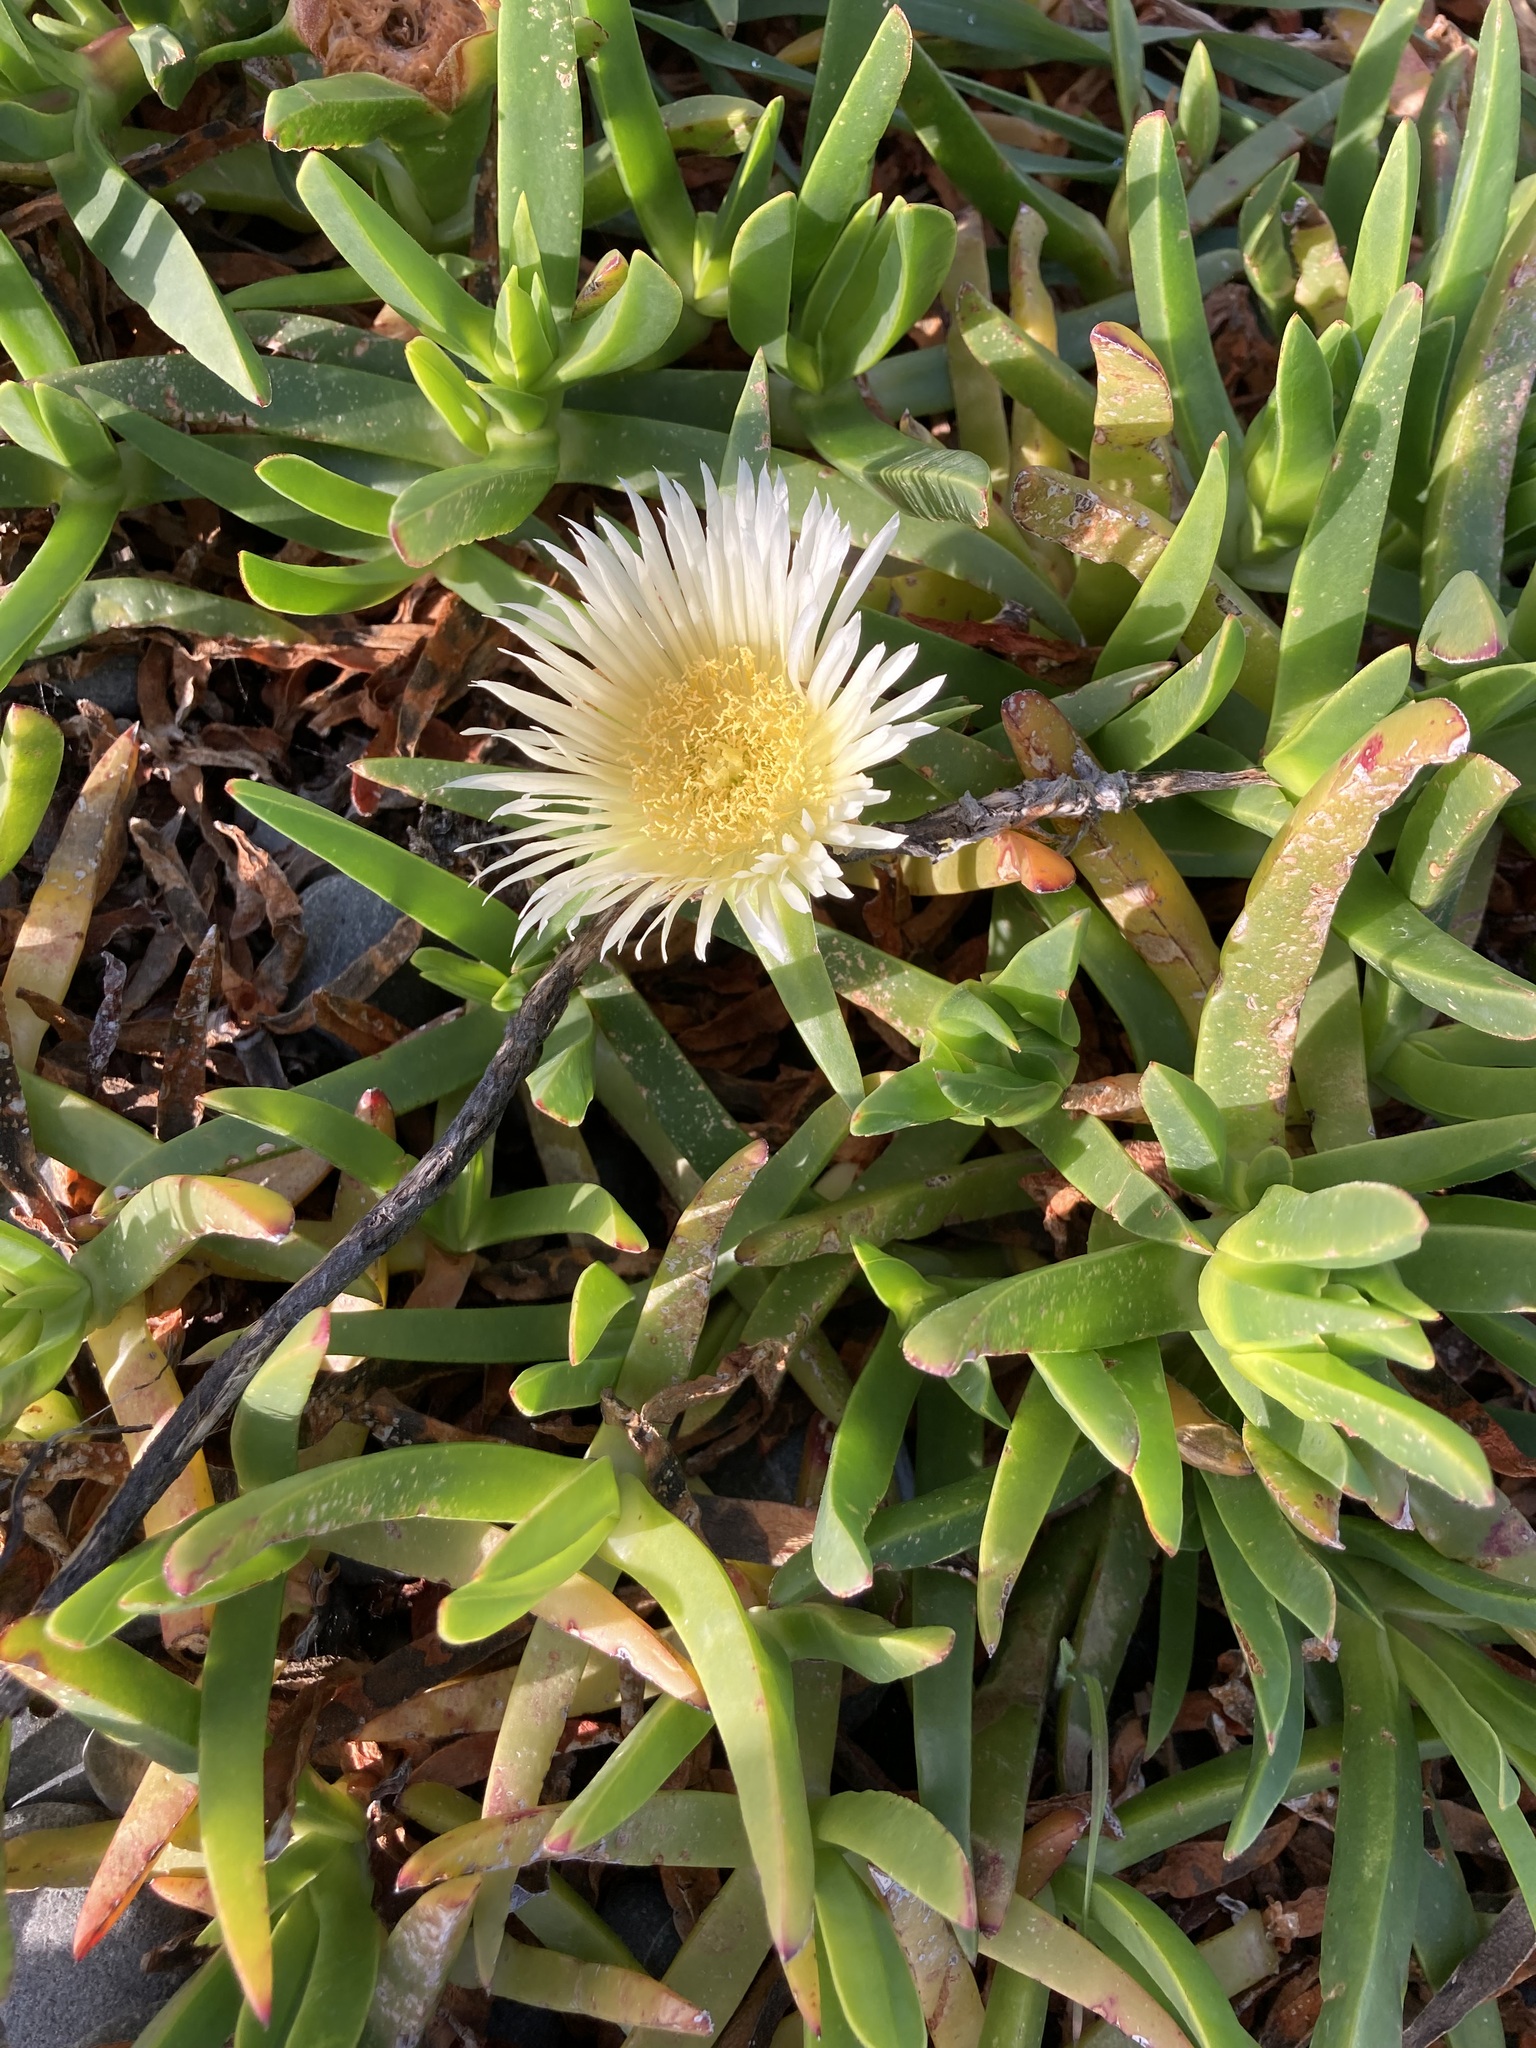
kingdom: Plantae
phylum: Tracheophyta
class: Magnoliopsida
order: Caryophyllales
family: Aizoaceae
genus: Carpobrotus
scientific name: Carpobrotus edulis
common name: Hottentot-fig
